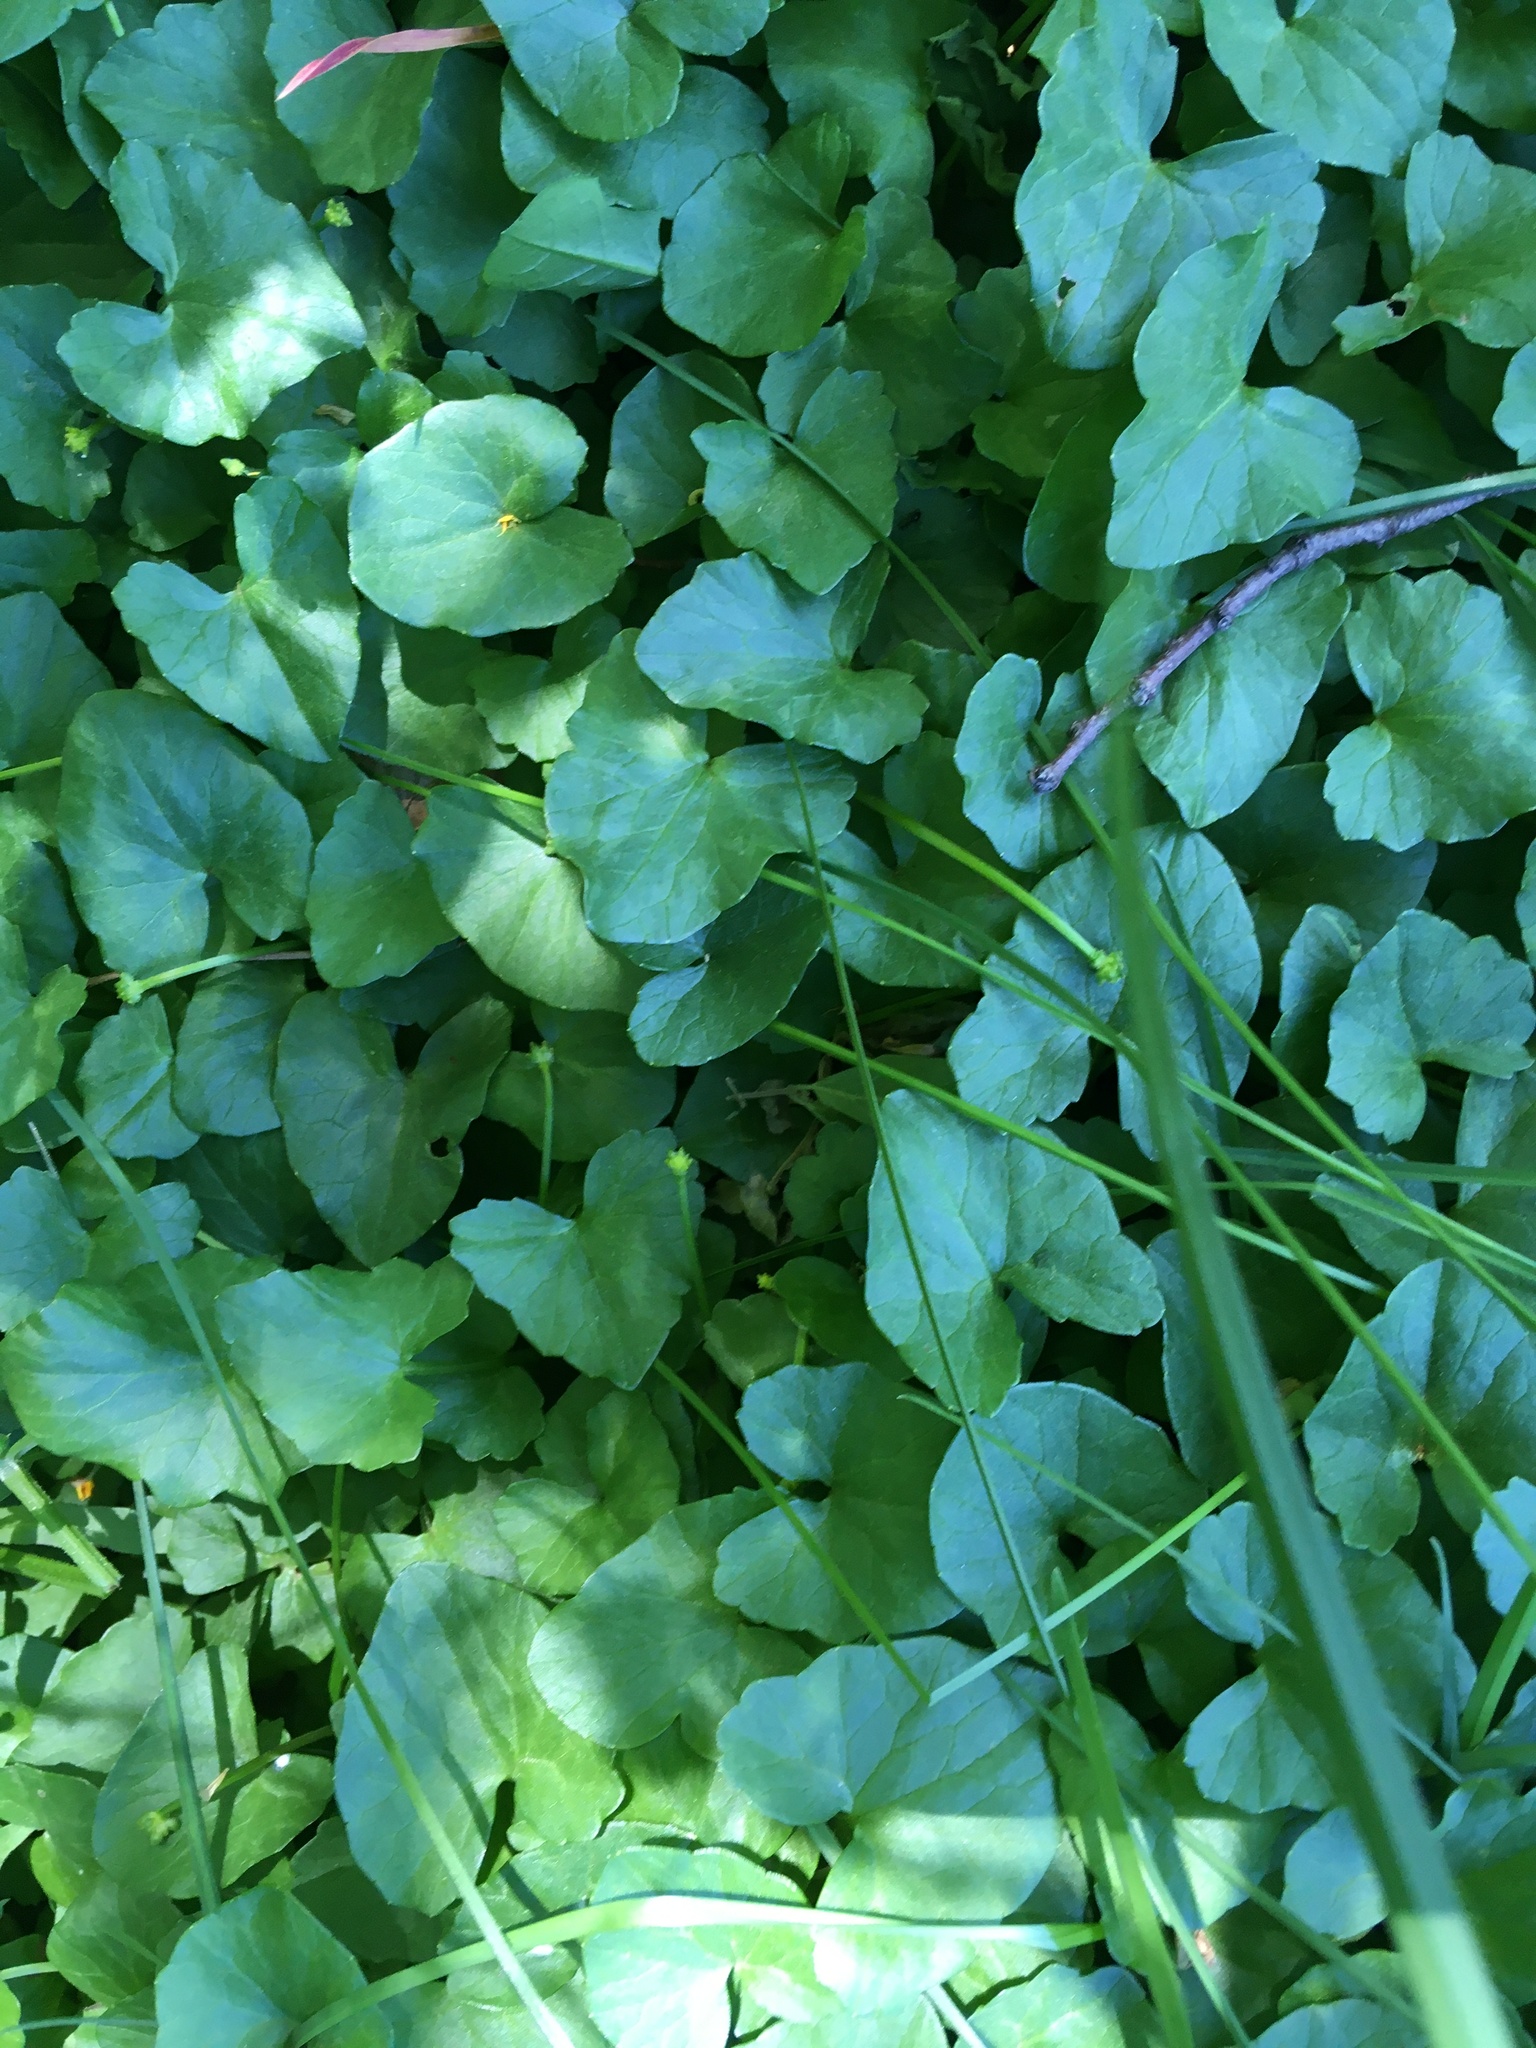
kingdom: Plantae
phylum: Tracheophyta
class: Magnoliopsida
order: Ranunculales
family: Ranunculaceae
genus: Ficaria
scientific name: Ficaria verna
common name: Lesser celandine
